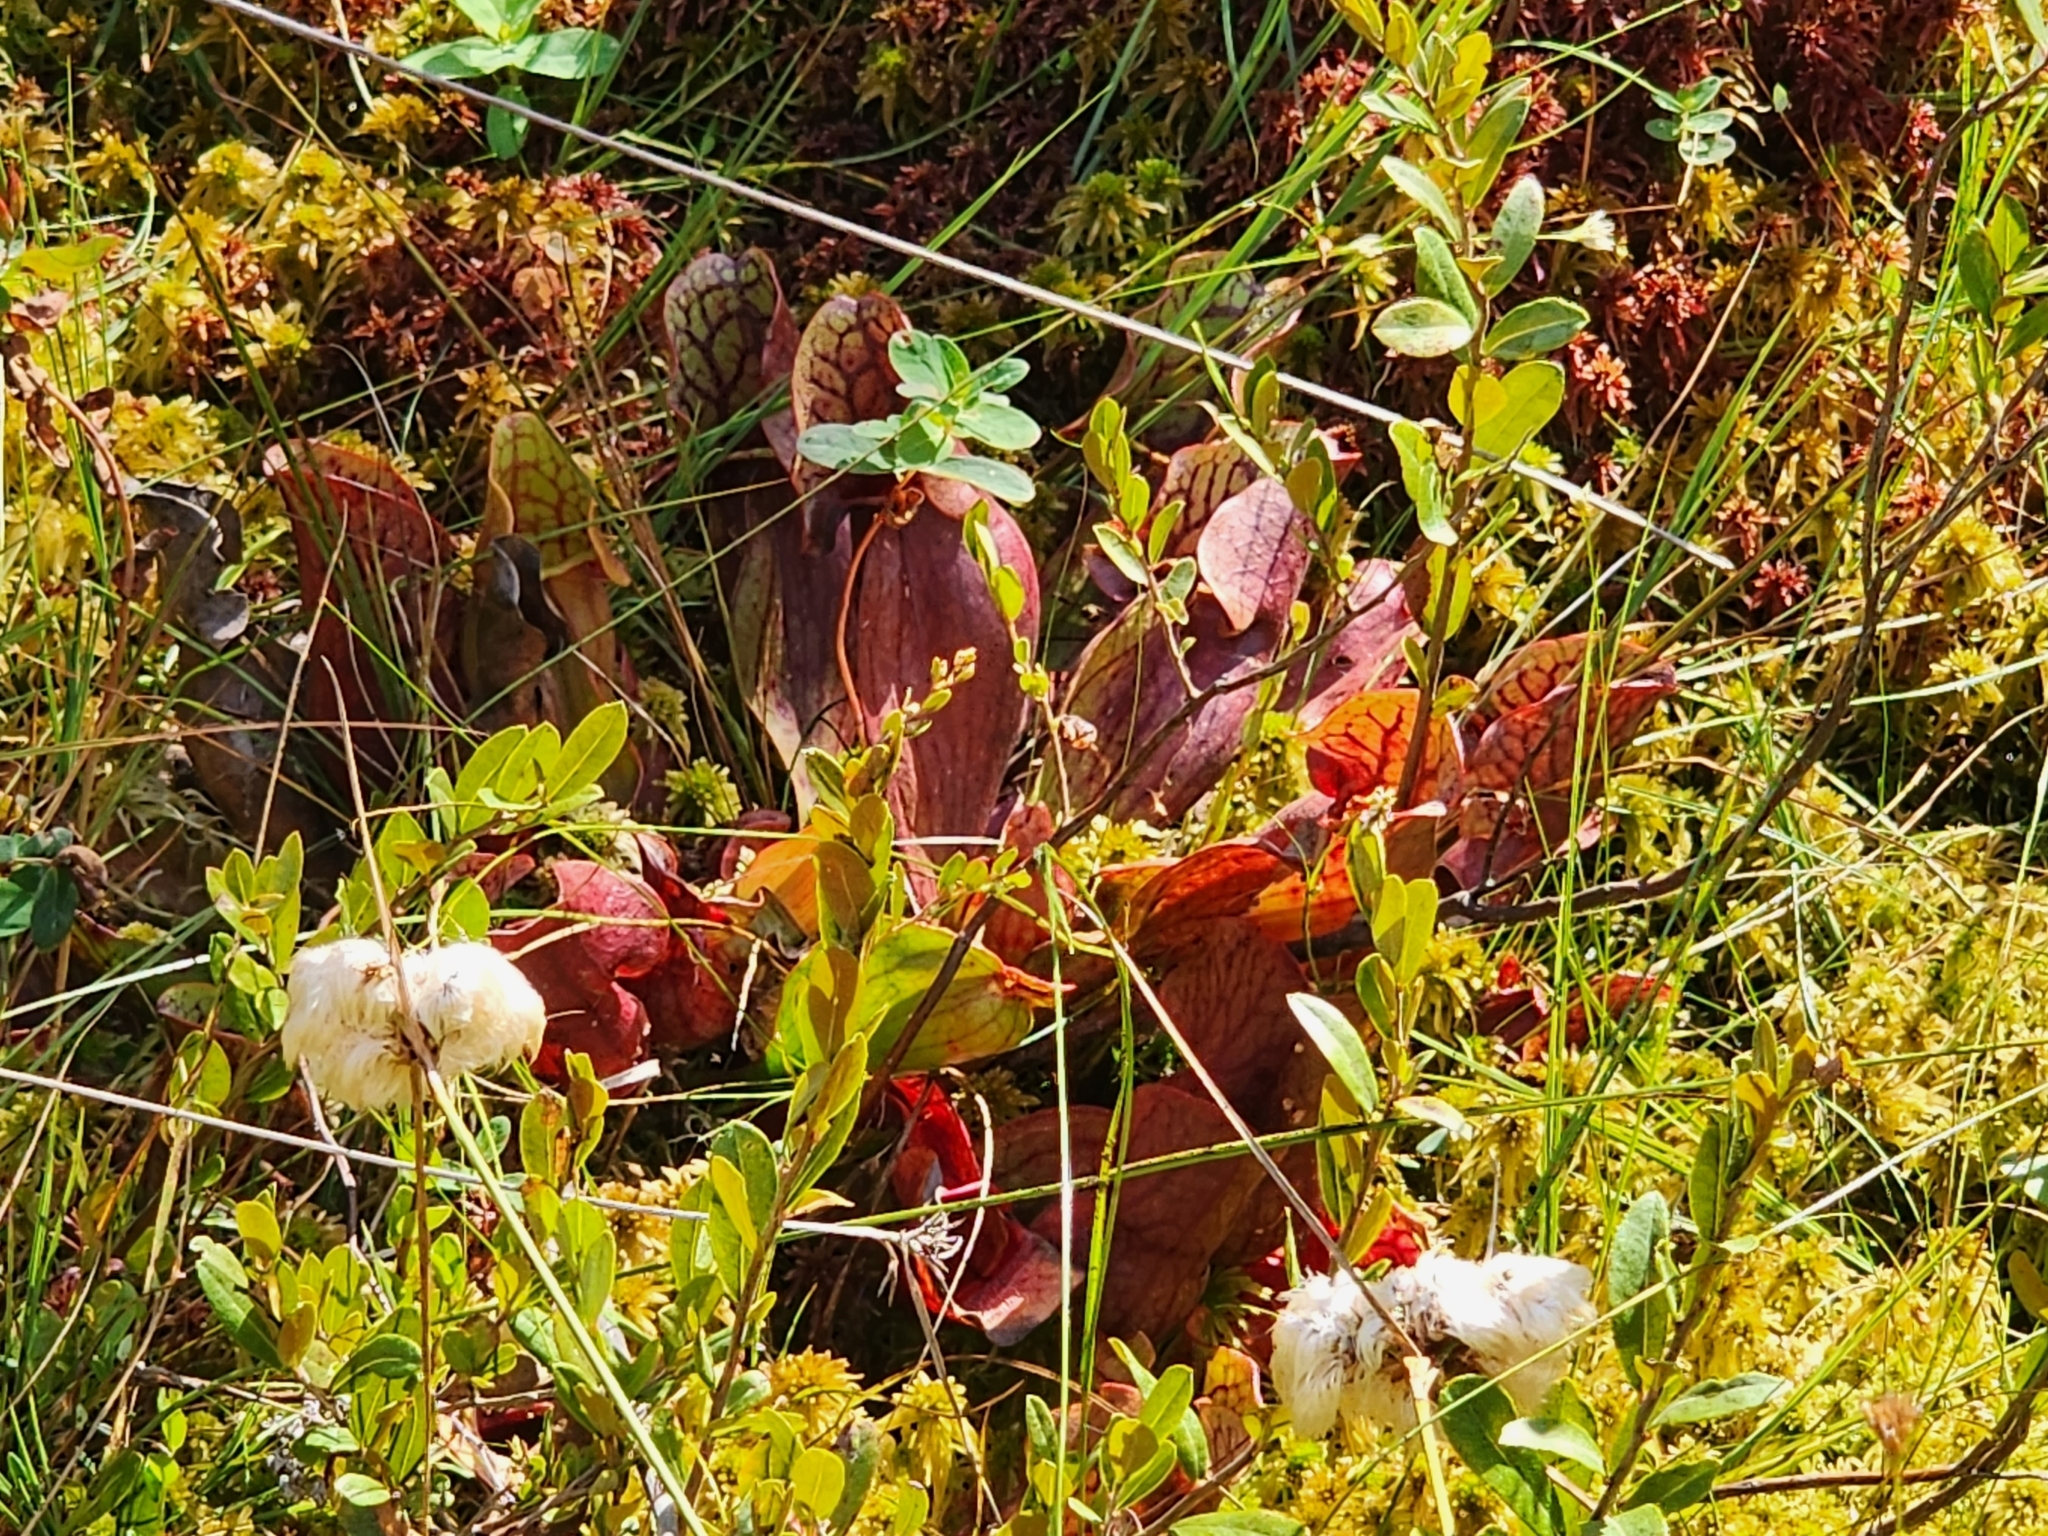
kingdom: Plantae
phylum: Tracheophyta
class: Magnoliopsida
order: Ericales
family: Sarraceniaceae
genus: Sarracenia
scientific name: Sarracenia purpurea
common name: Pitcherplant
